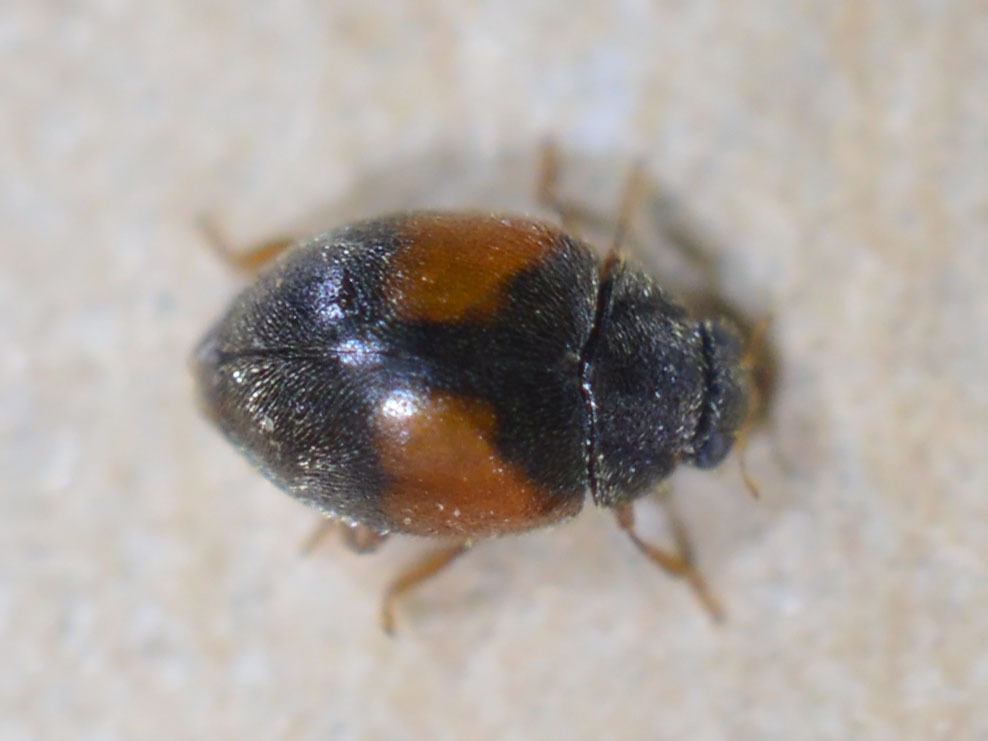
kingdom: Animalia
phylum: Arthropoda
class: Insecta
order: Coleoptera
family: Coccinellidae
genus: Scymnus
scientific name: Scymnus interruptus
